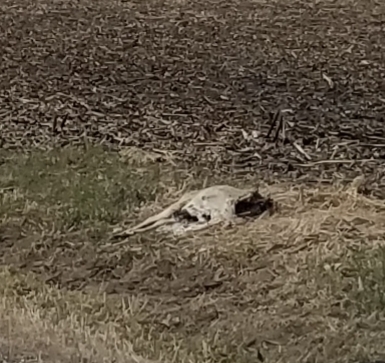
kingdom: Animalia
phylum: Chordata
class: Mammalia
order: Artiodactyla
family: Cervidae
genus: Odocoileus
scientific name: Odocoileus virginianus
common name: White-tailed deer
